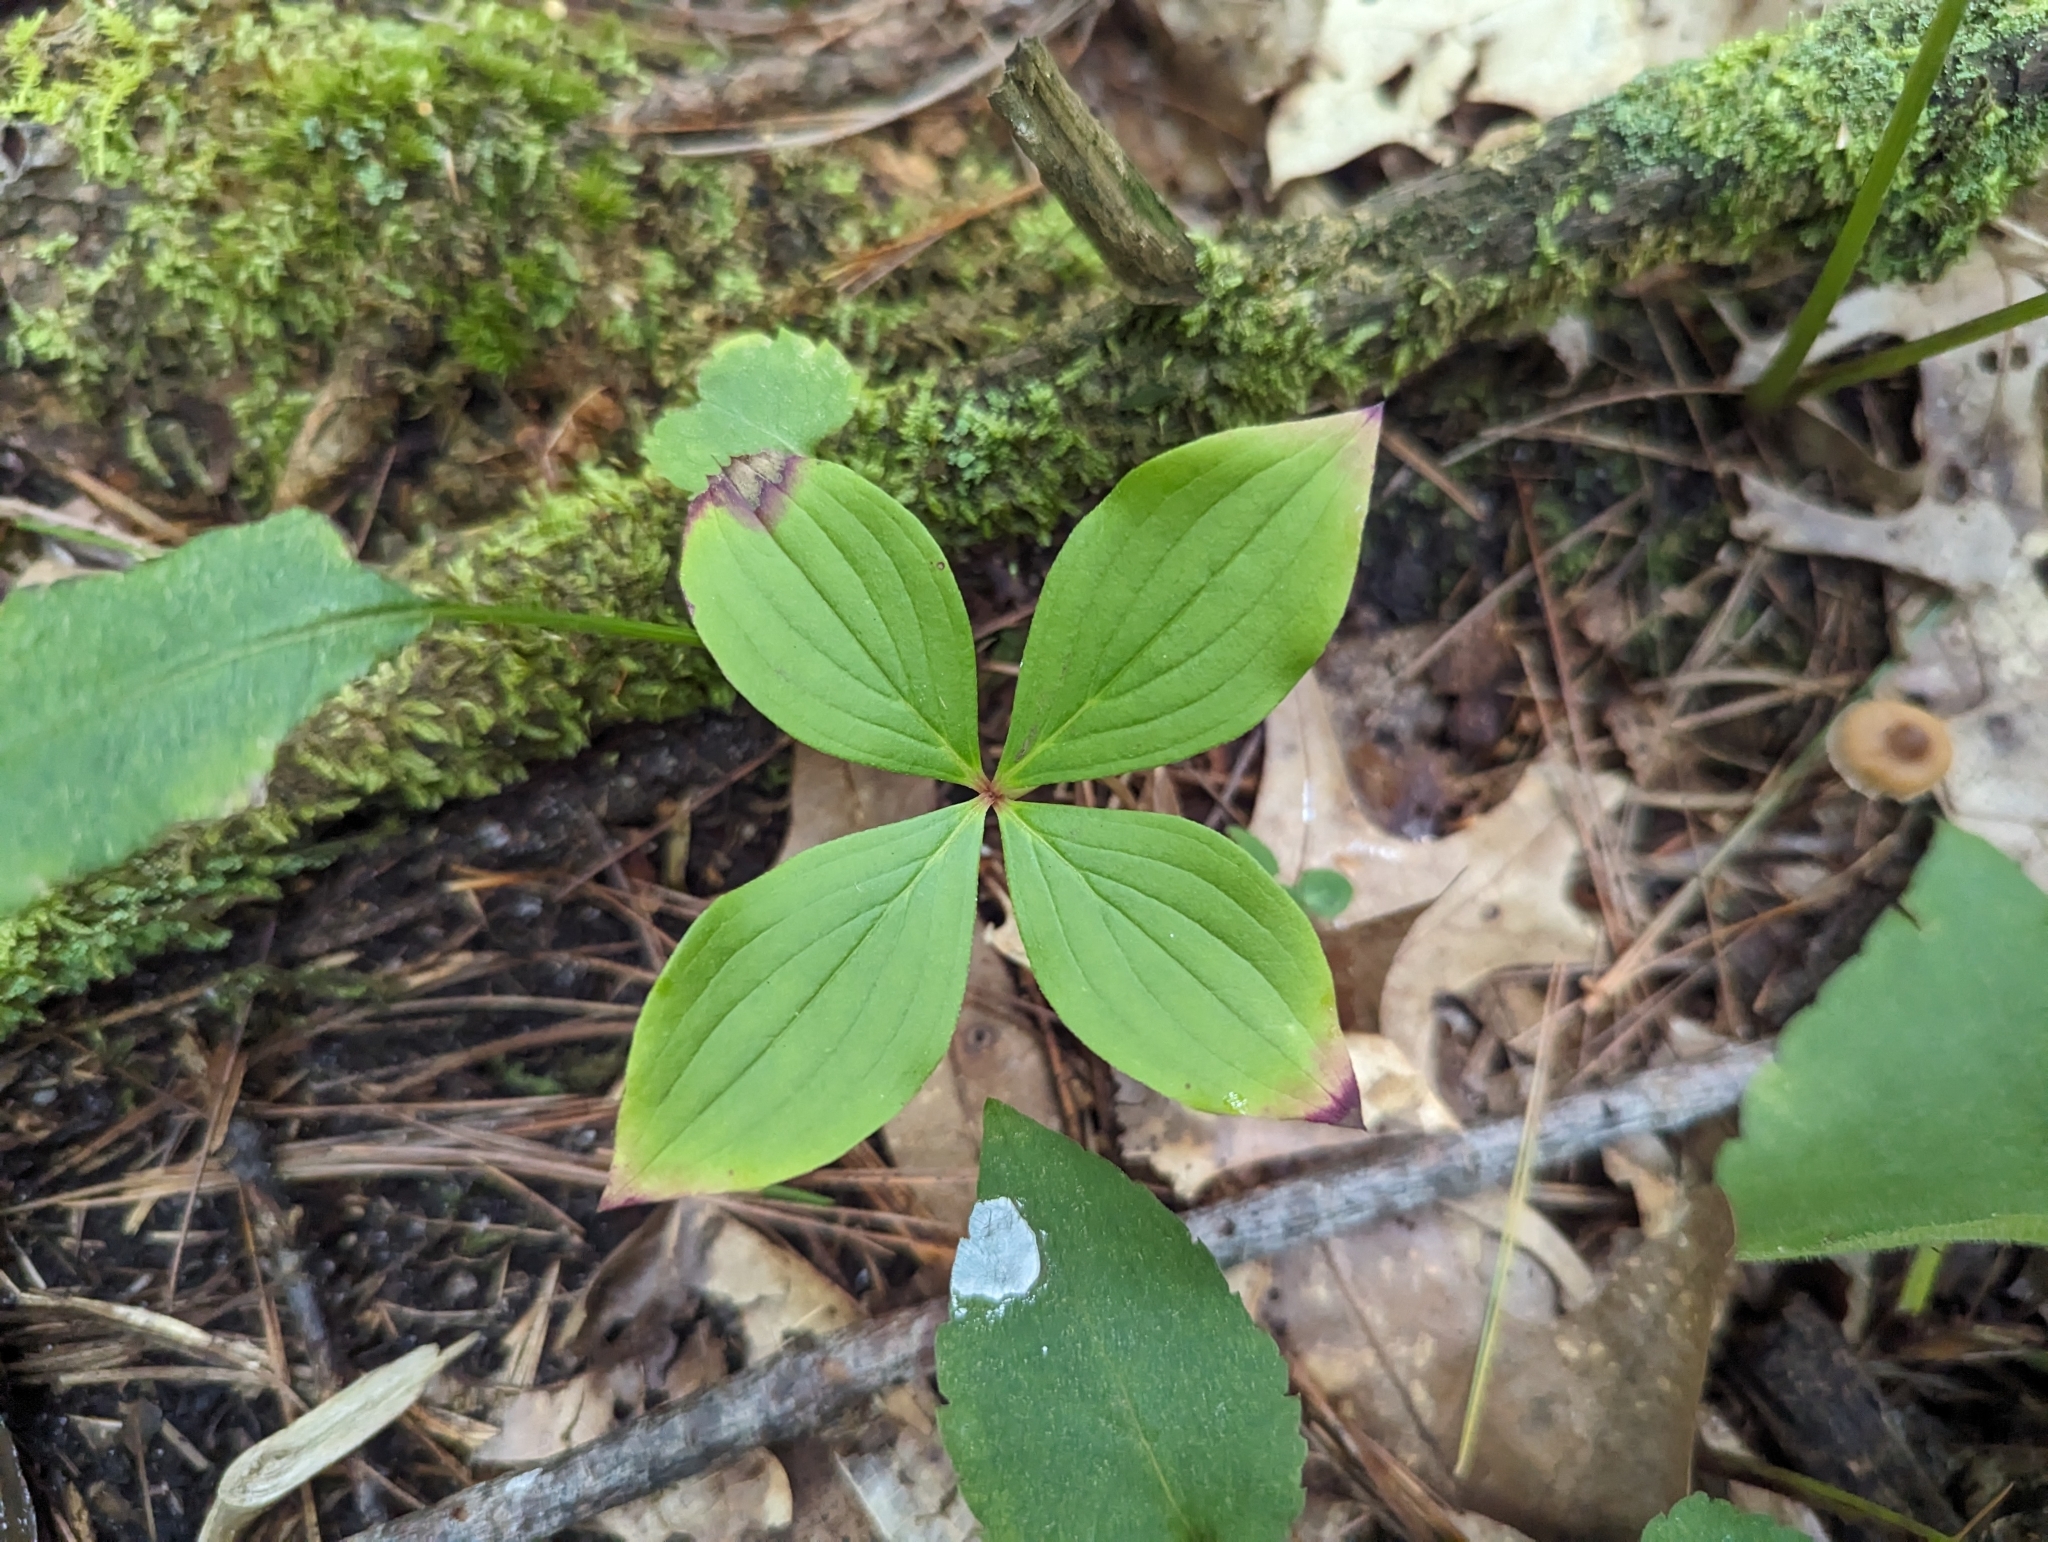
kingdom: Plantae
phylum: Tracheophyta
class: Magnoliopsida
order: Cornales
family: Cornaceae
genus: Cornus
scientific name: Cornus canadensis
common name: Creeping dogwood
